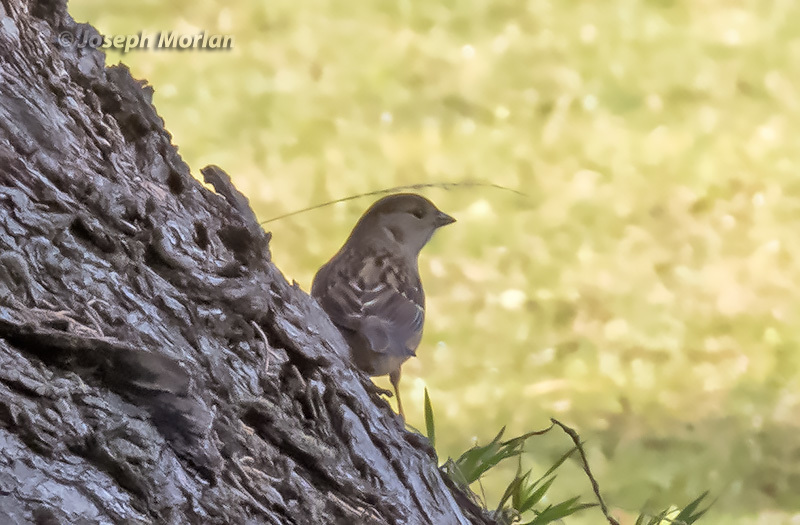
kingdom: Animalia
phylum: Chordata
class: Aves
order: Passeriformes
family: Passerellidae
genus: Zonotrichia
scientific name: Zonotrichia atricapilla
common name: Golden-crowned sparrow
